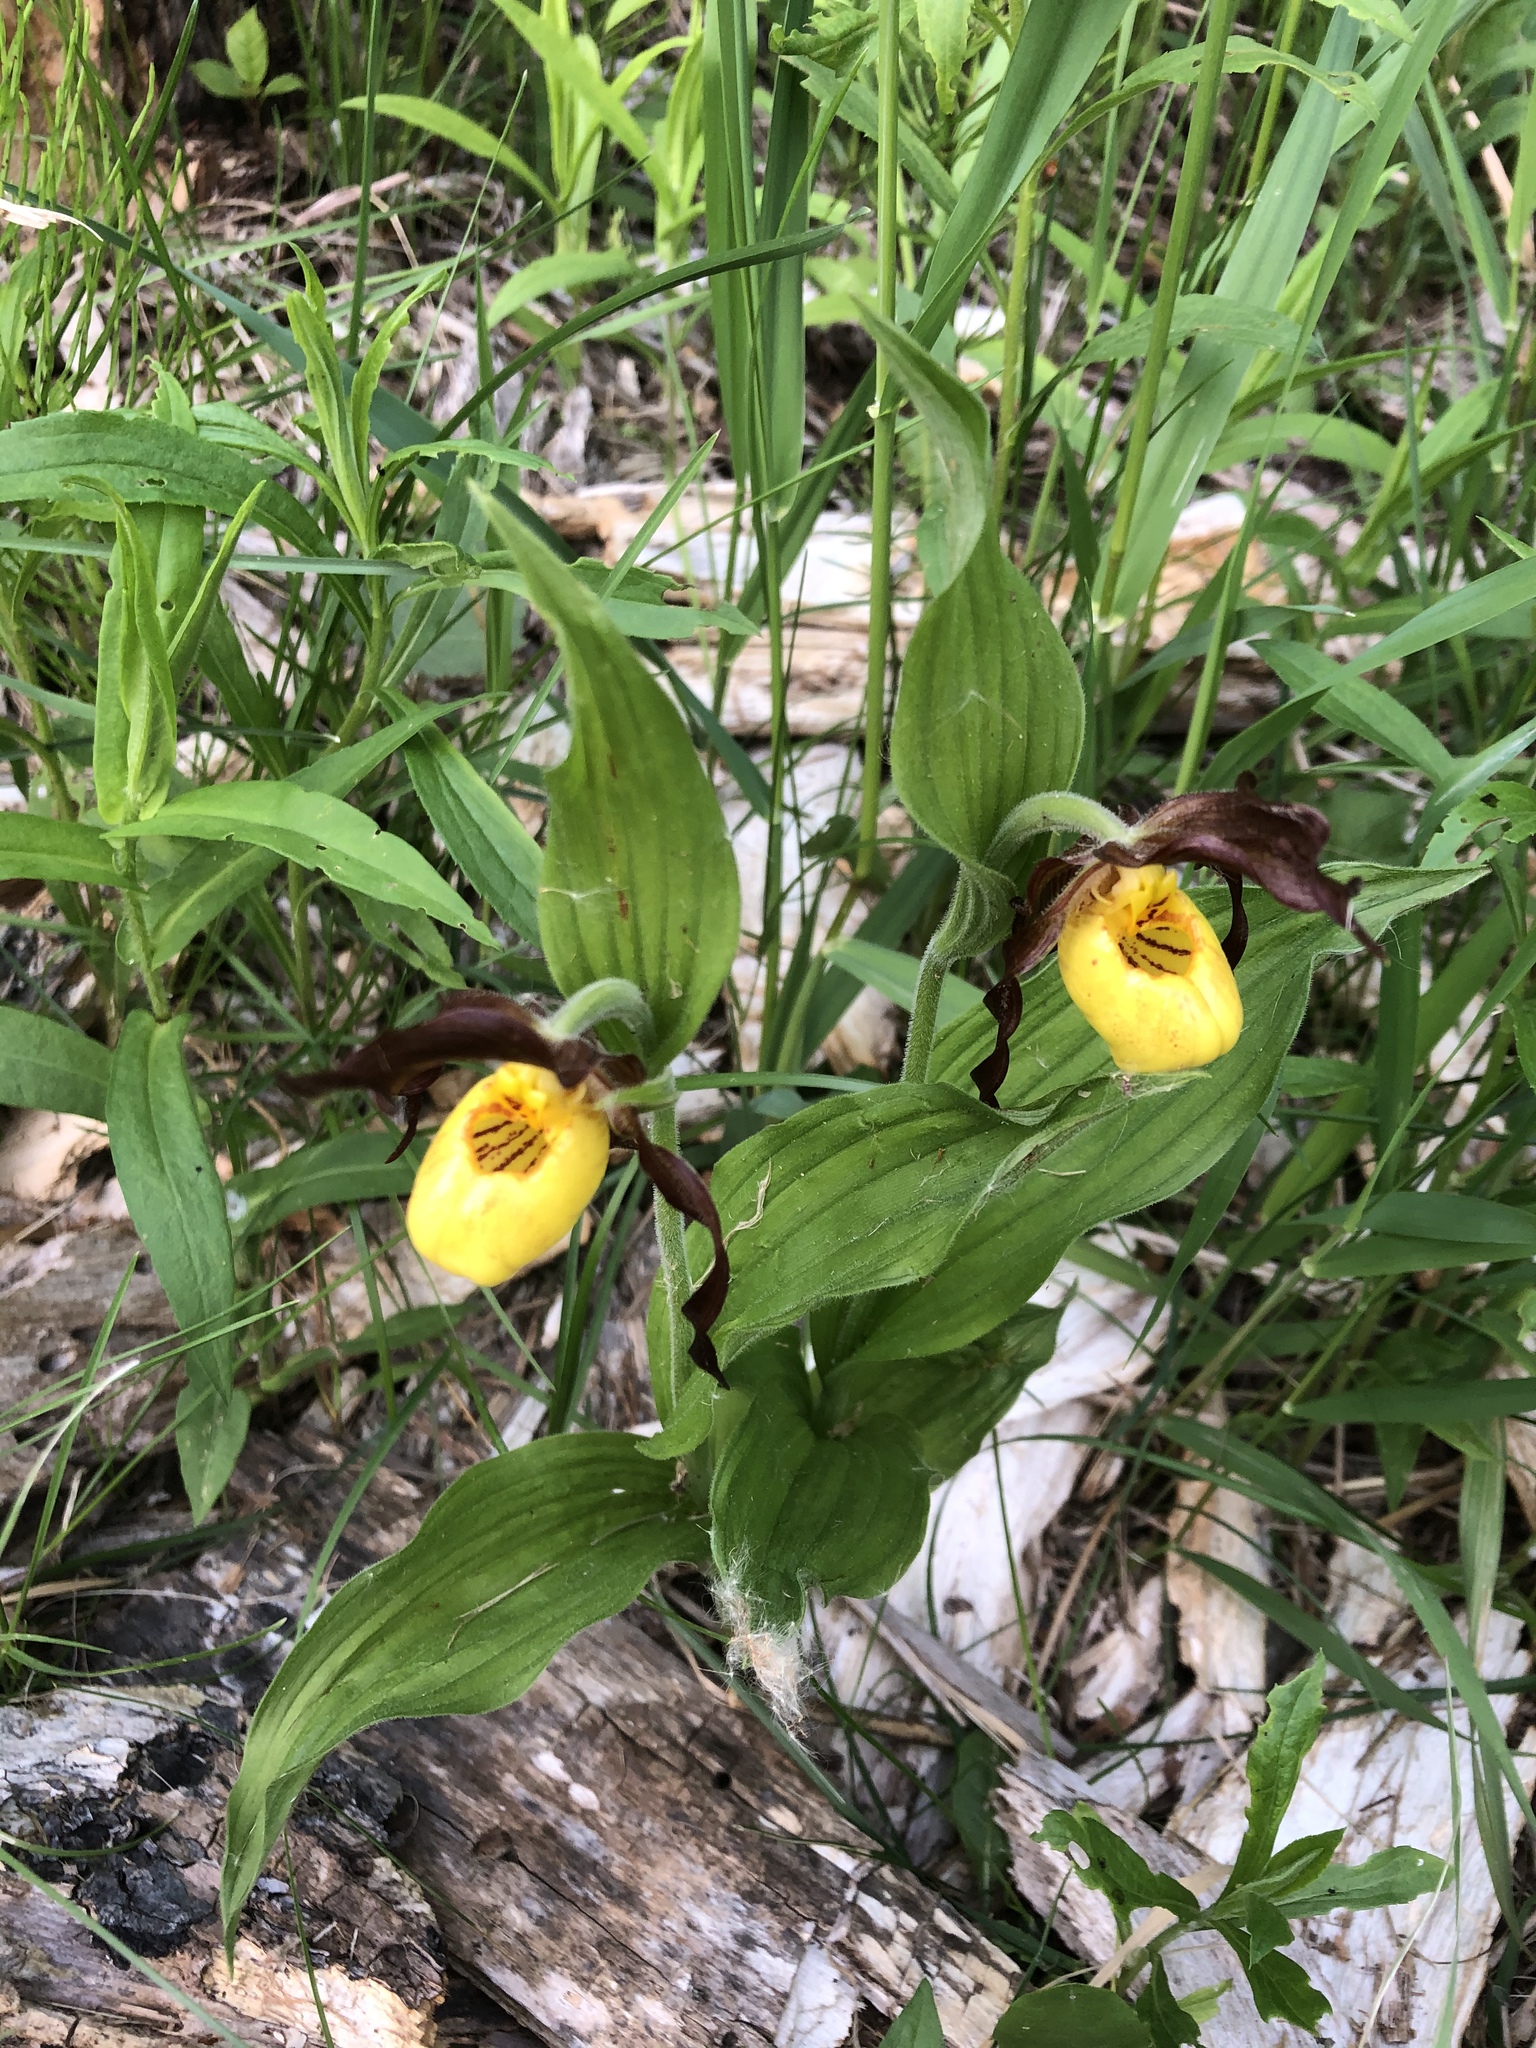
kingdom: Plantae
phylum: Tracheophyta
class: Liliopsida
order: Asparagales
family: Orchidaceae
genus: Cypripedium
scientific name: Cypripedium parviflorum
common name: American yellow lady's-slipper
